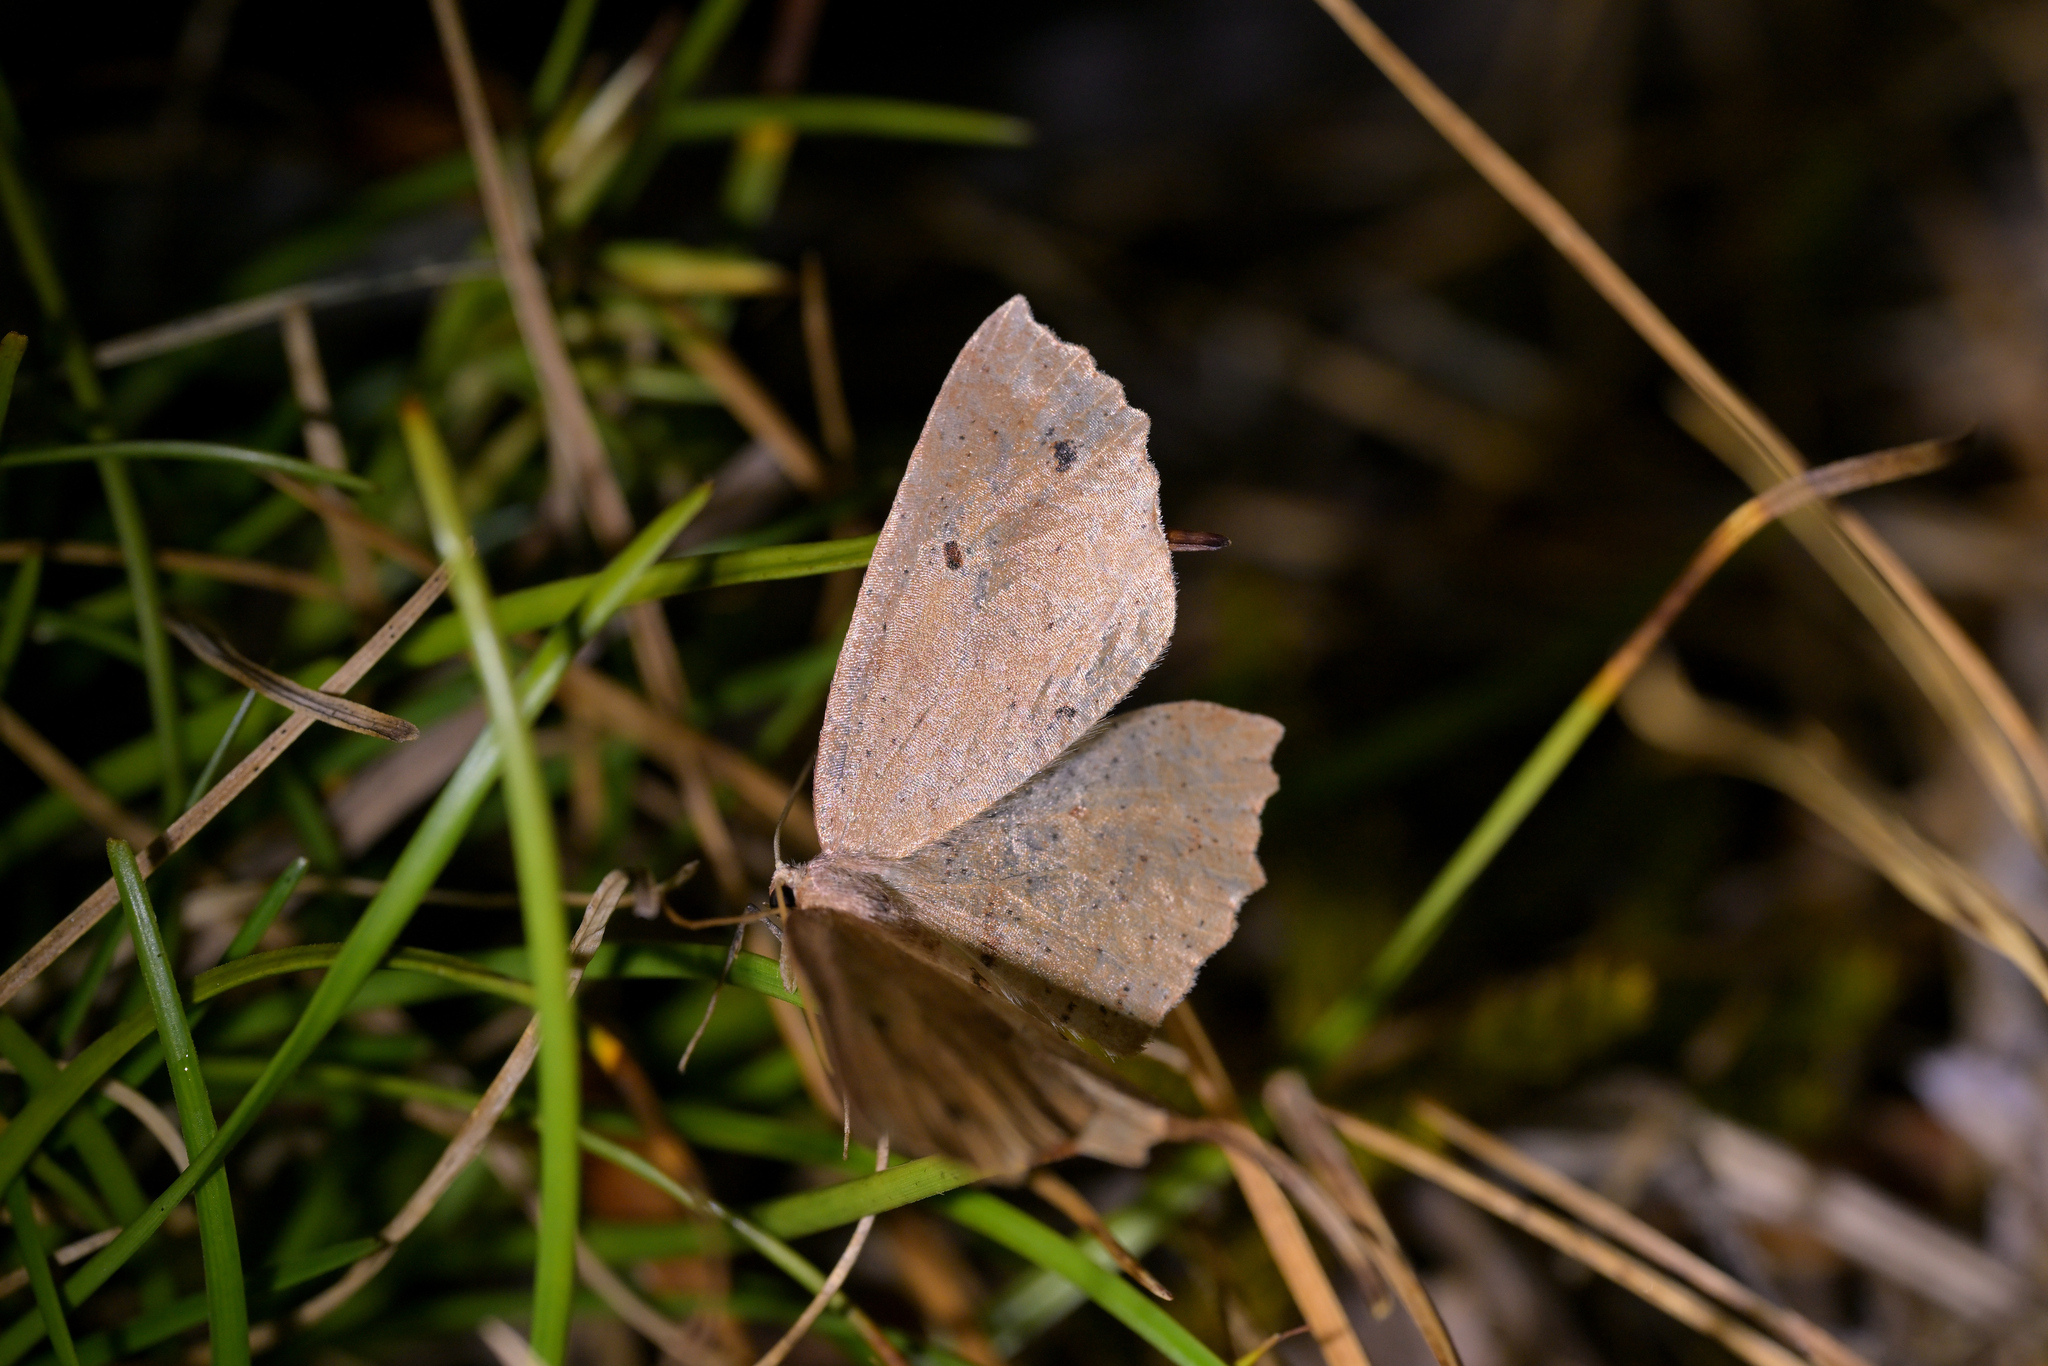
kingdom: Animalia
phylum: Arthropoda
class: Insecta
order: Lepidoptera
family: Geometridae
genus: Xyridacma
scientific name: Xyridacma veronicae
